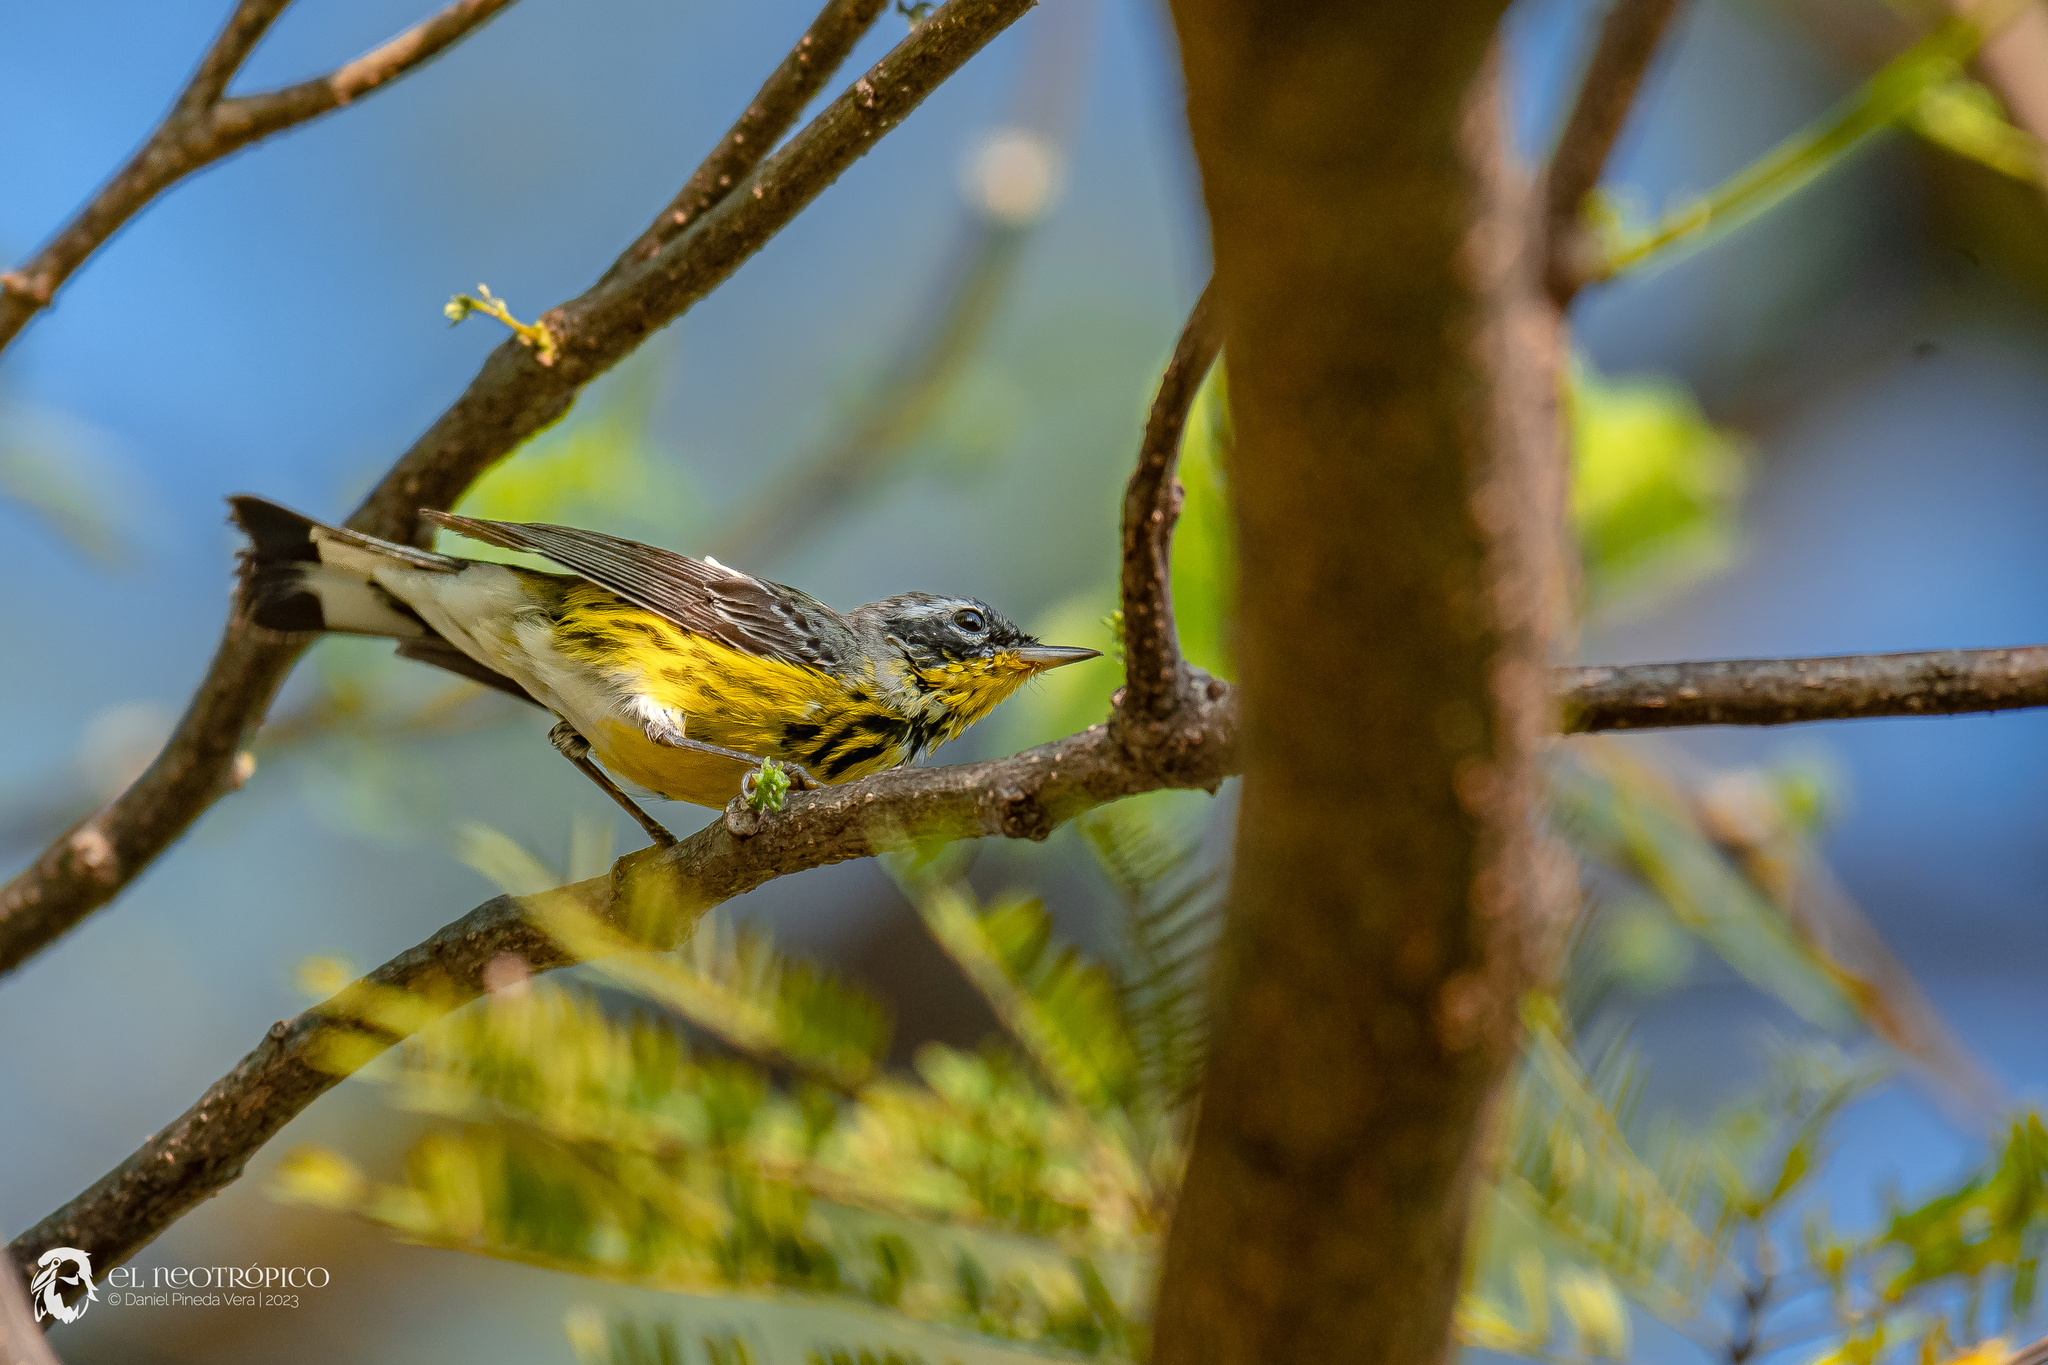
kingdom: Animalia
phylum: Chordata
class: Aves
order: Passeriformes
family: Parulidae
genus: Setophaga
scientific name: Setophaga magnolia
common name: Magnolia warbler
